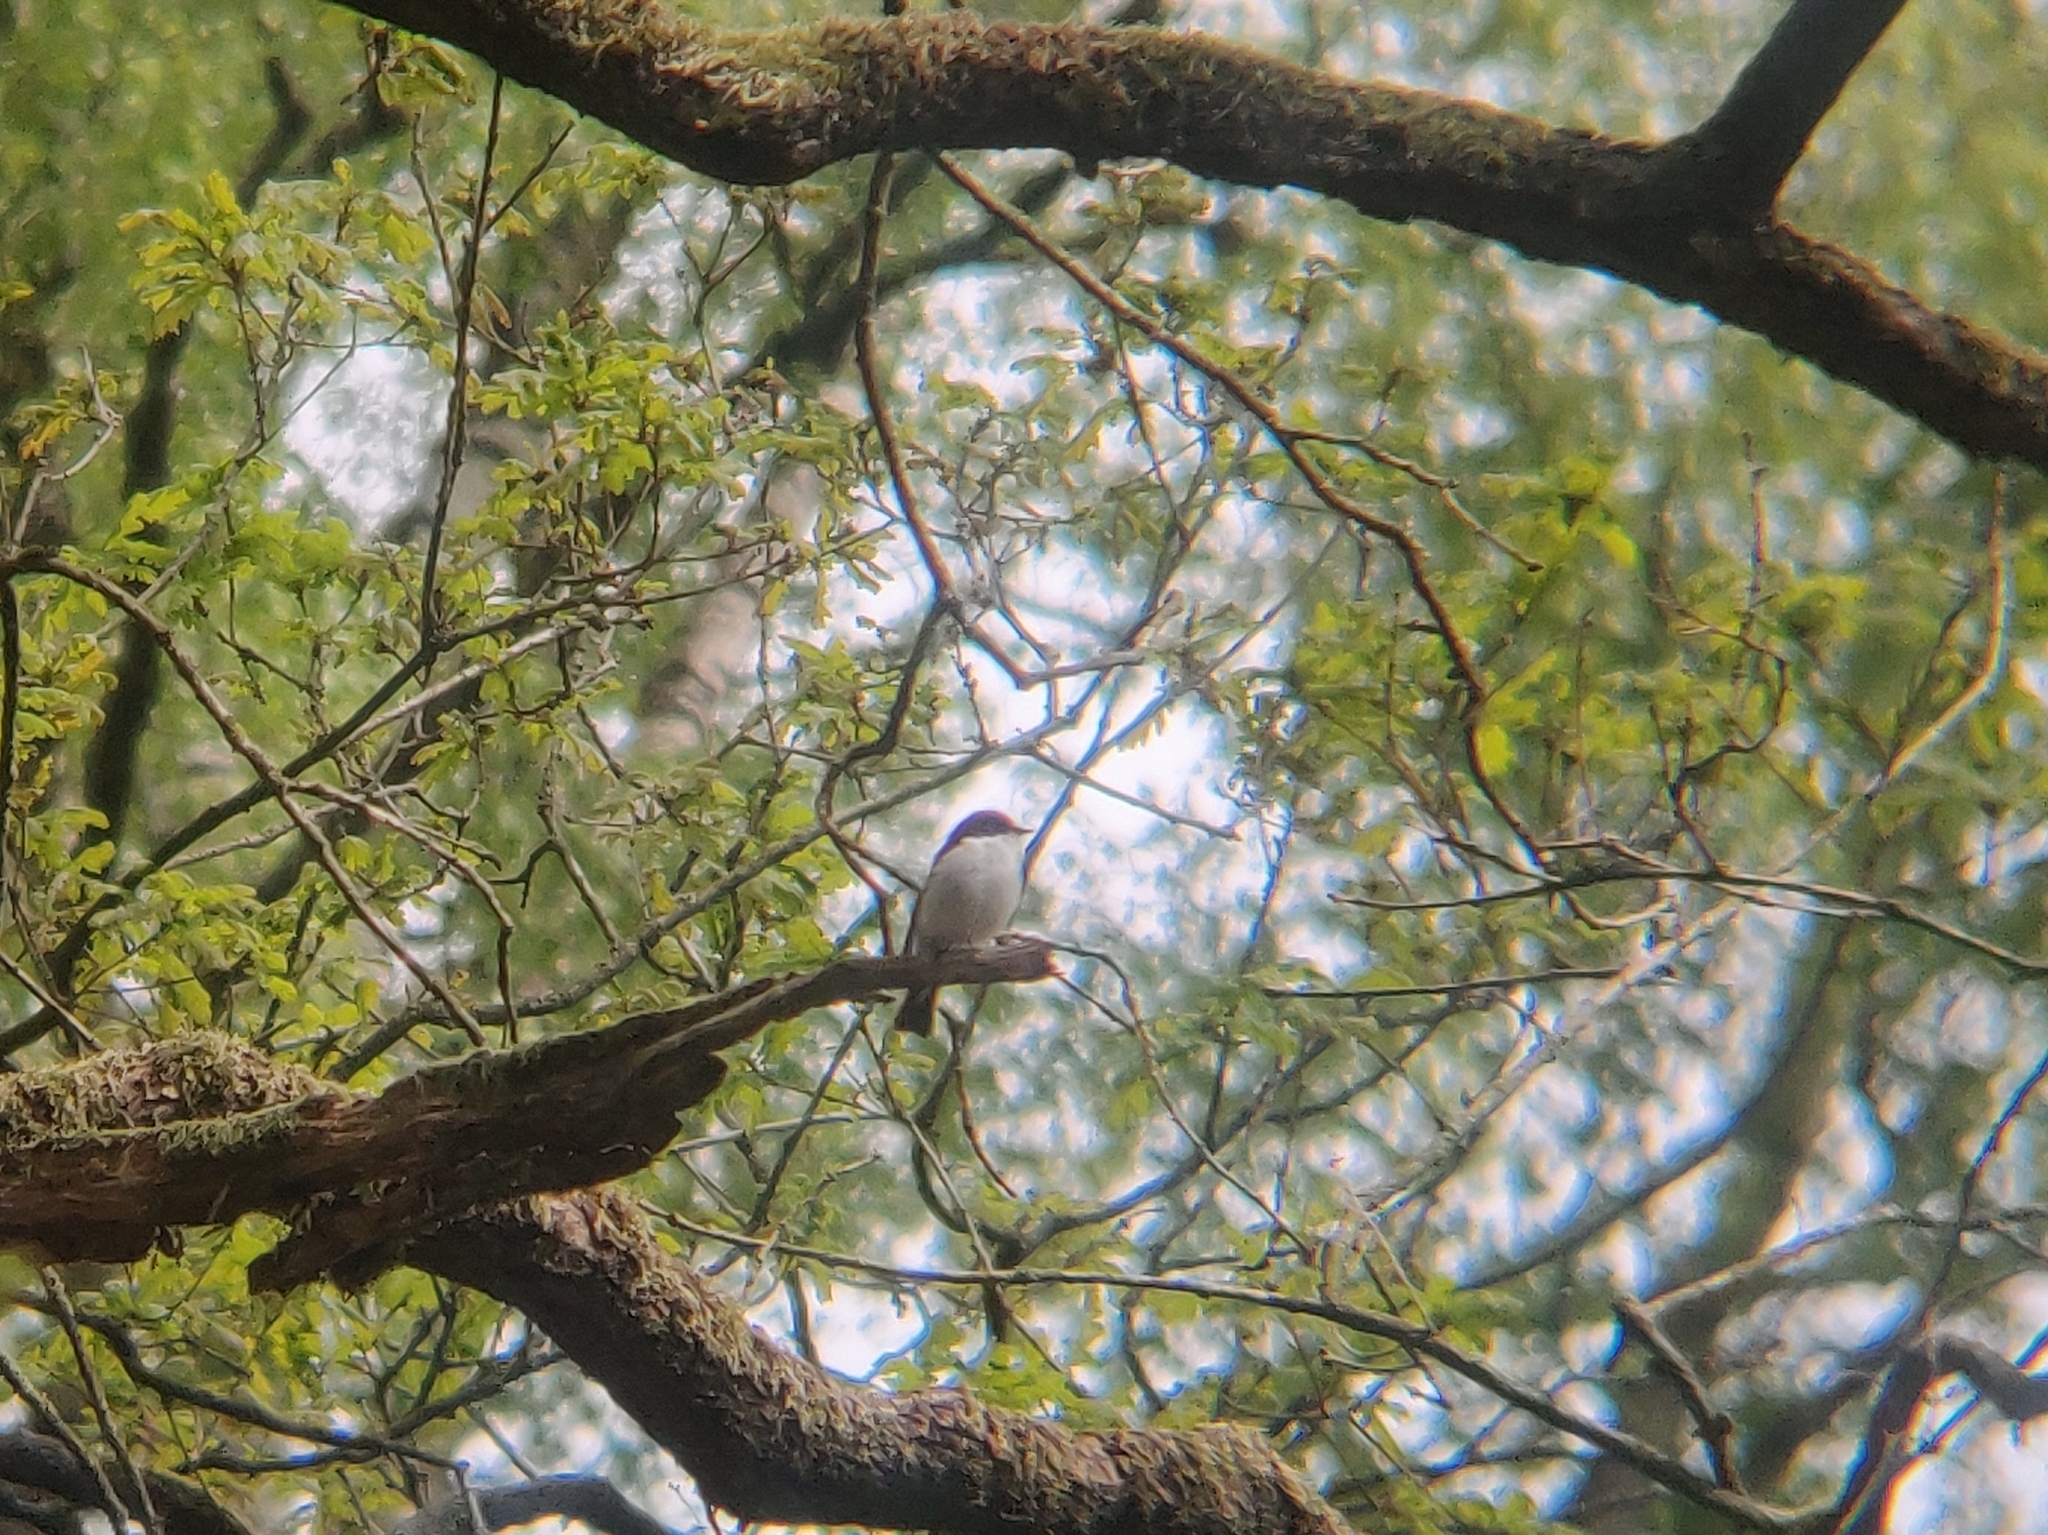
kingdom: Animalia
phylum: Chordata
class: Aves
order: Passeriformes
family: Muscicapidae
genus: Ficedula
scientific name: Ficedula hypoleuca
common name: European pied flycatcher
